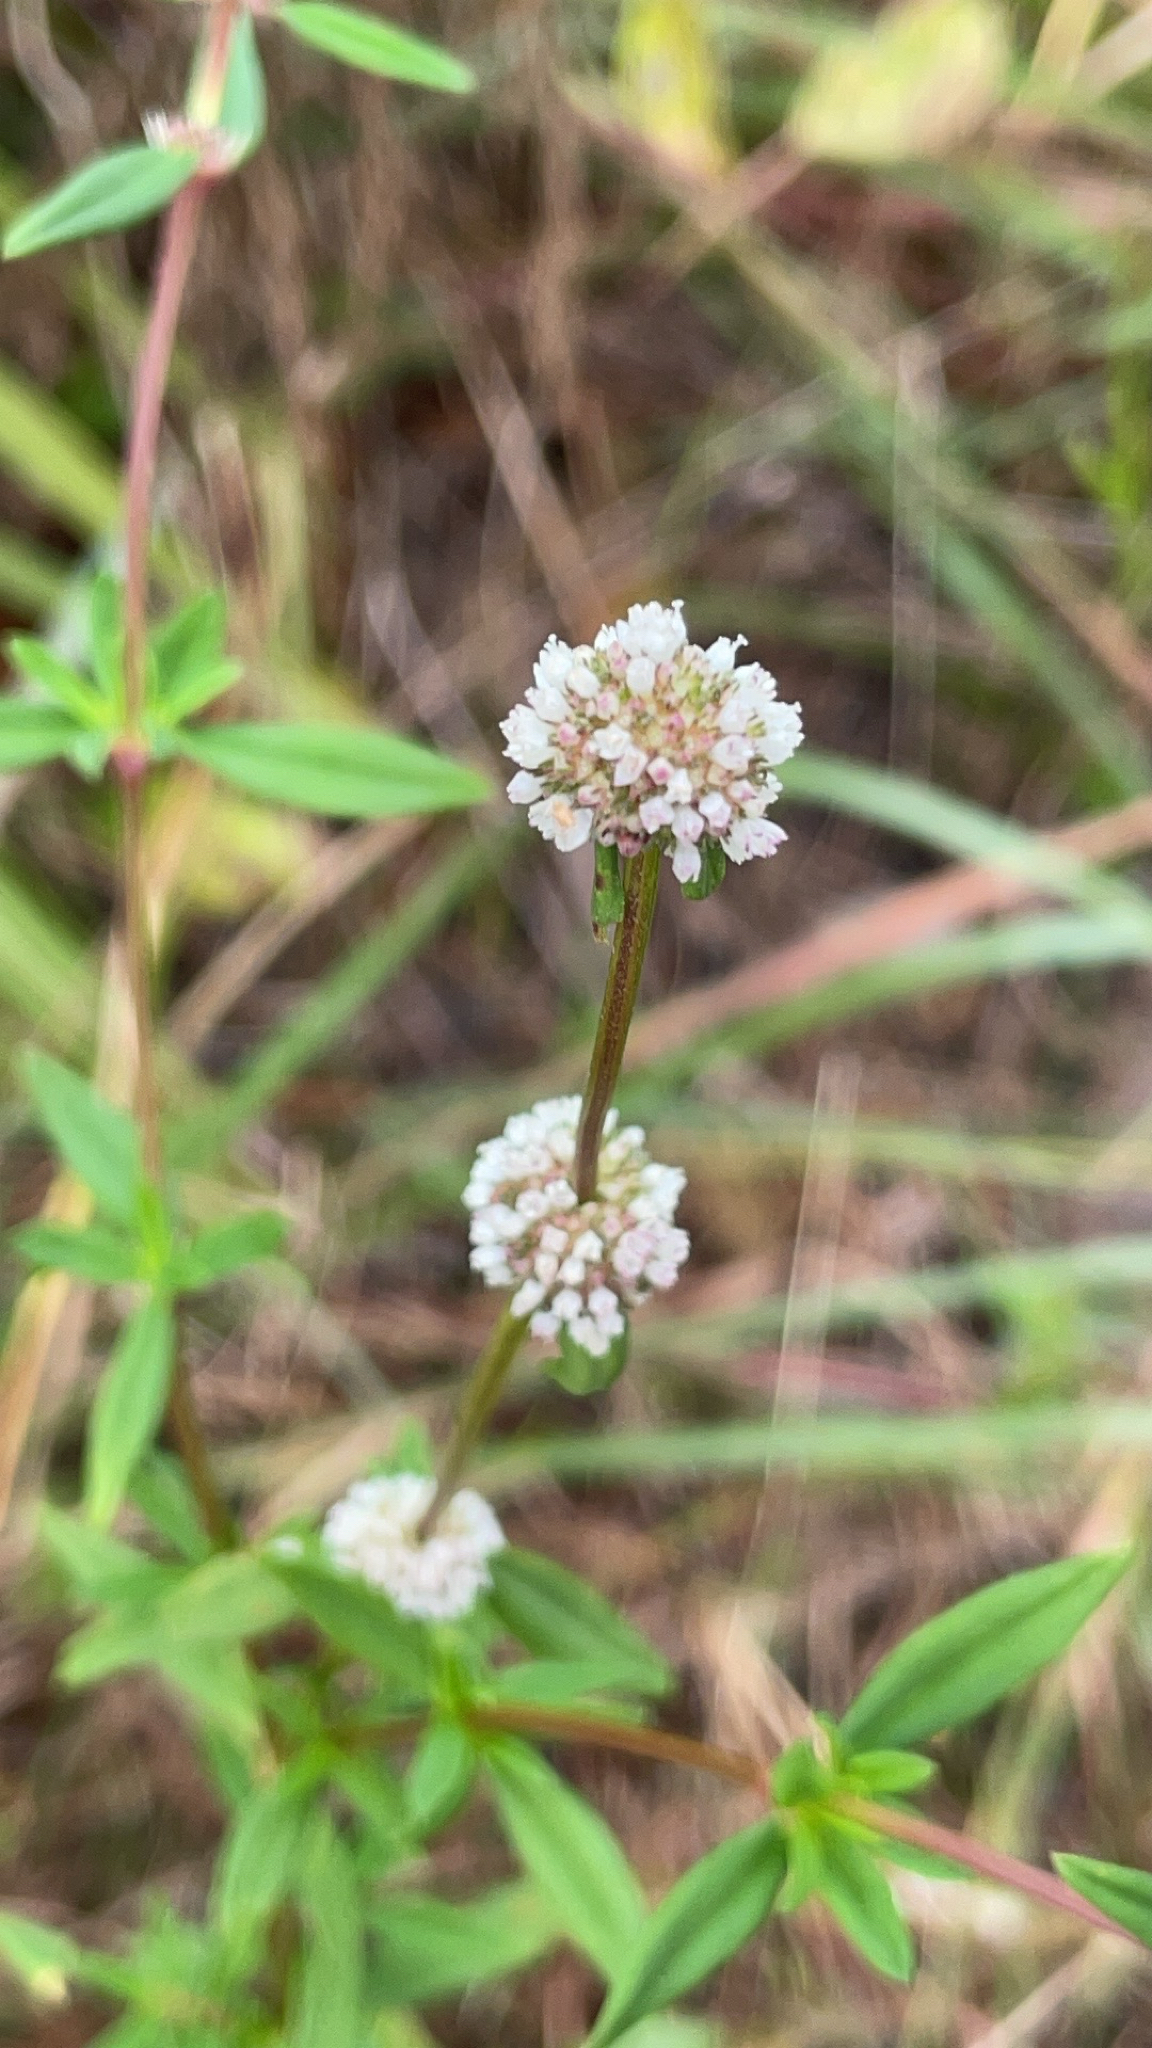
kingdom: Plantae
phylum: Tracheophyta
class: Magnoliopsida
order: Gentianales
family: Rubiaceae
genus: Spermacoce
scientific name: Spermacoce verticillata
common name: Shrubby false buttonweed
